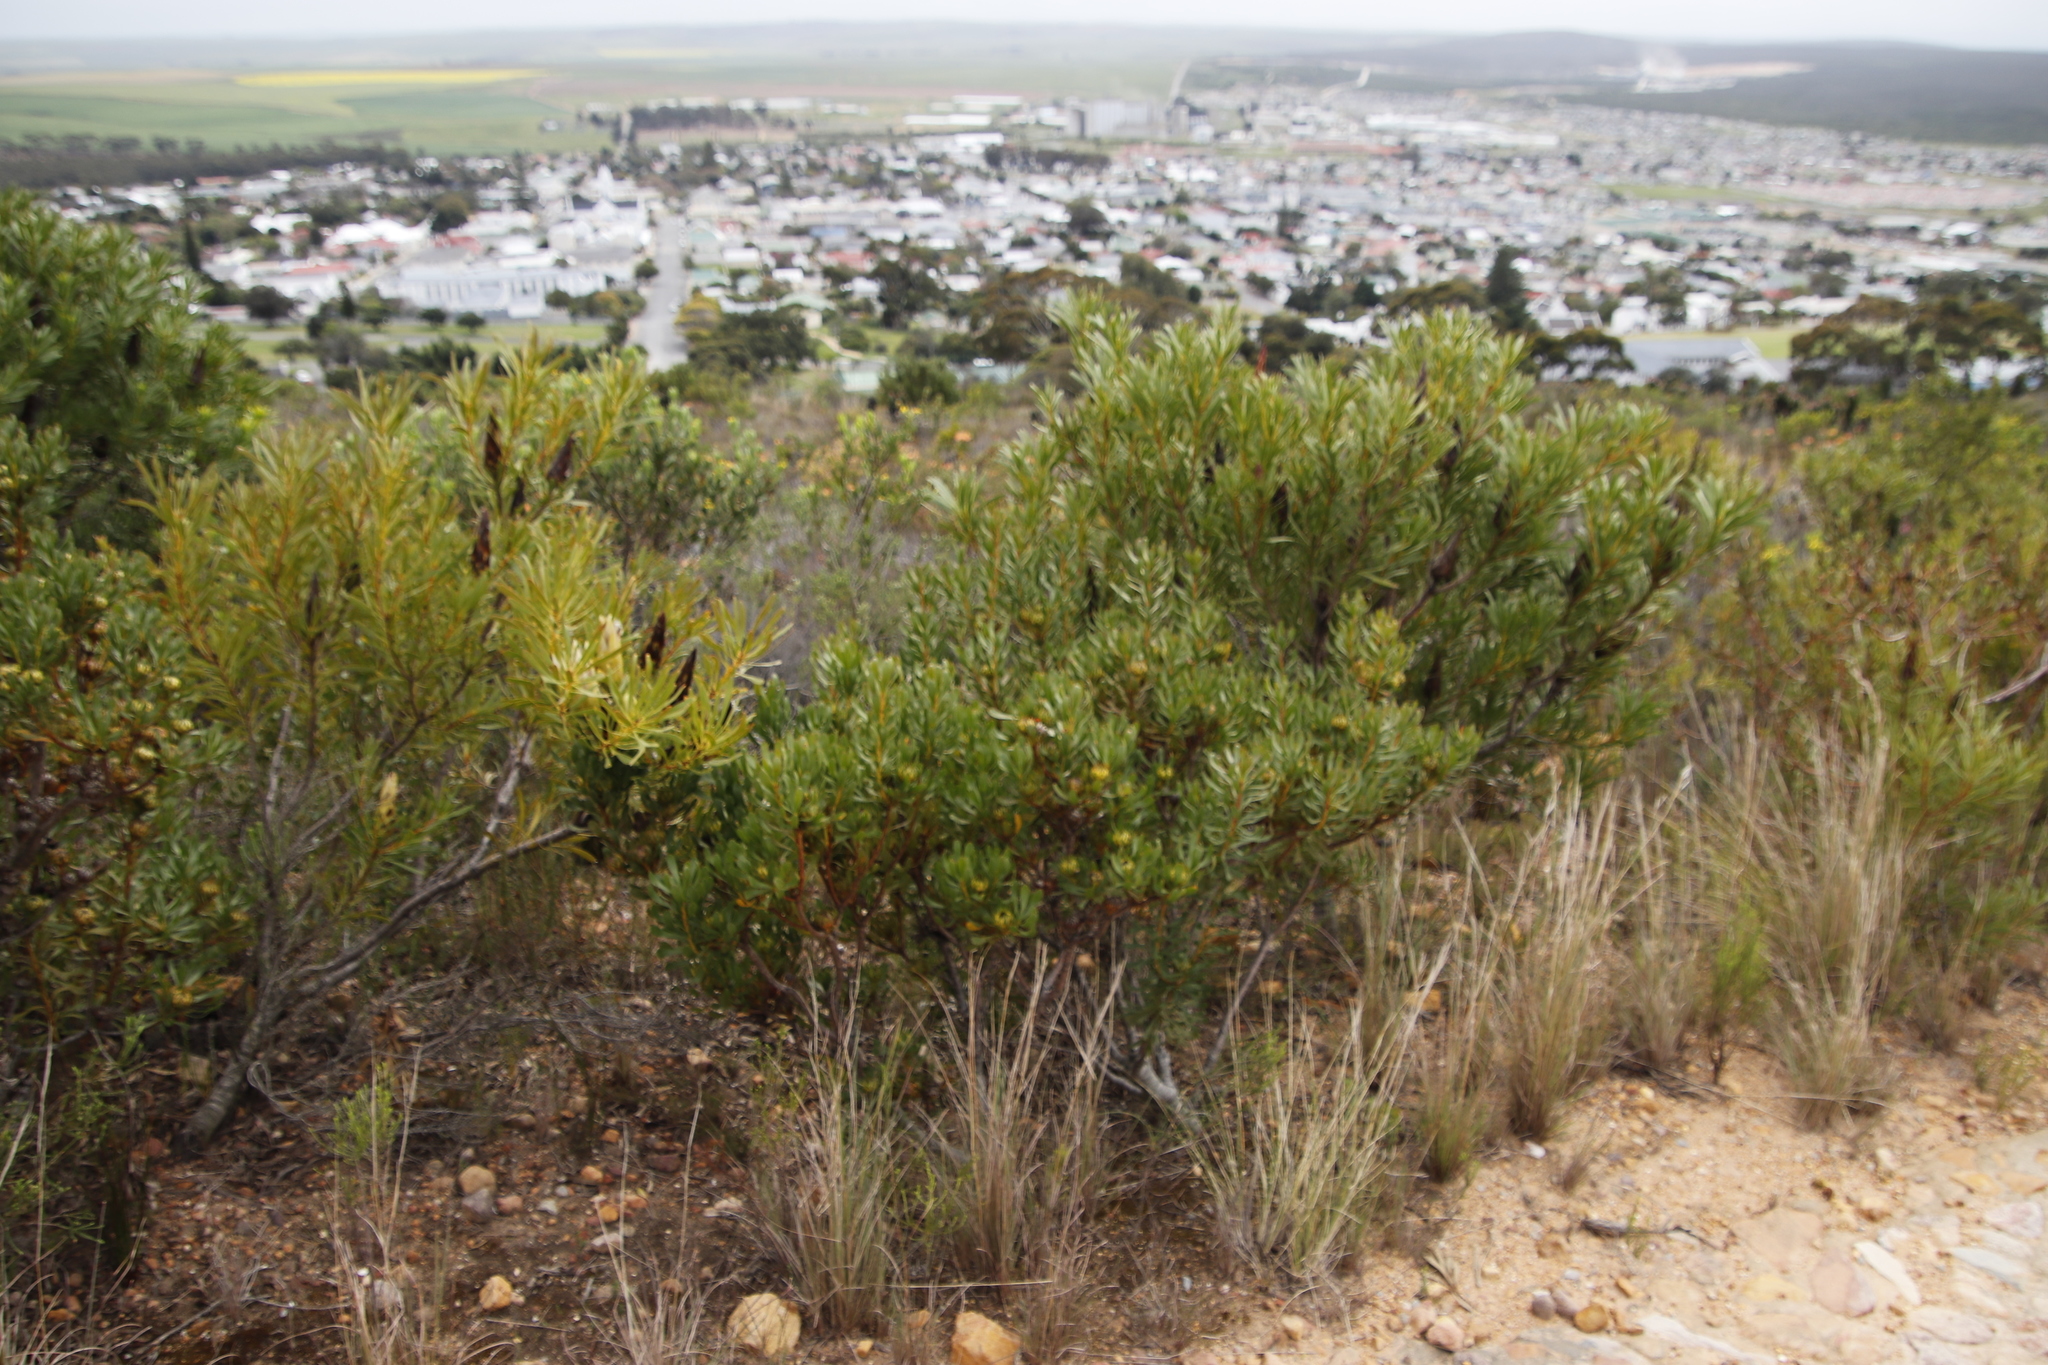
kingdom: Plantae
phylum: Tracheophyta
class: Magnoliopsida
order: Proteales
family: Proteaceae
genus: Protea
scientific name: Protea repens
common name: Sugarbush
